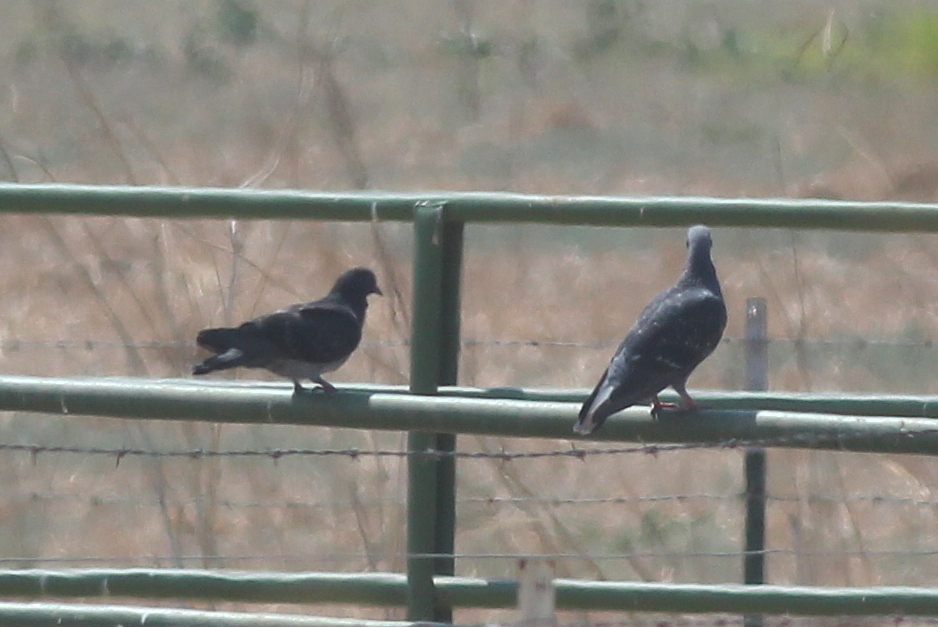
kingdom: Animalia
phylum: Chordata
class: Aves
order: Columbiformes
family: Columbidae
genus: Columba
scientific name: Columba livia
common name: Rock pigeon
